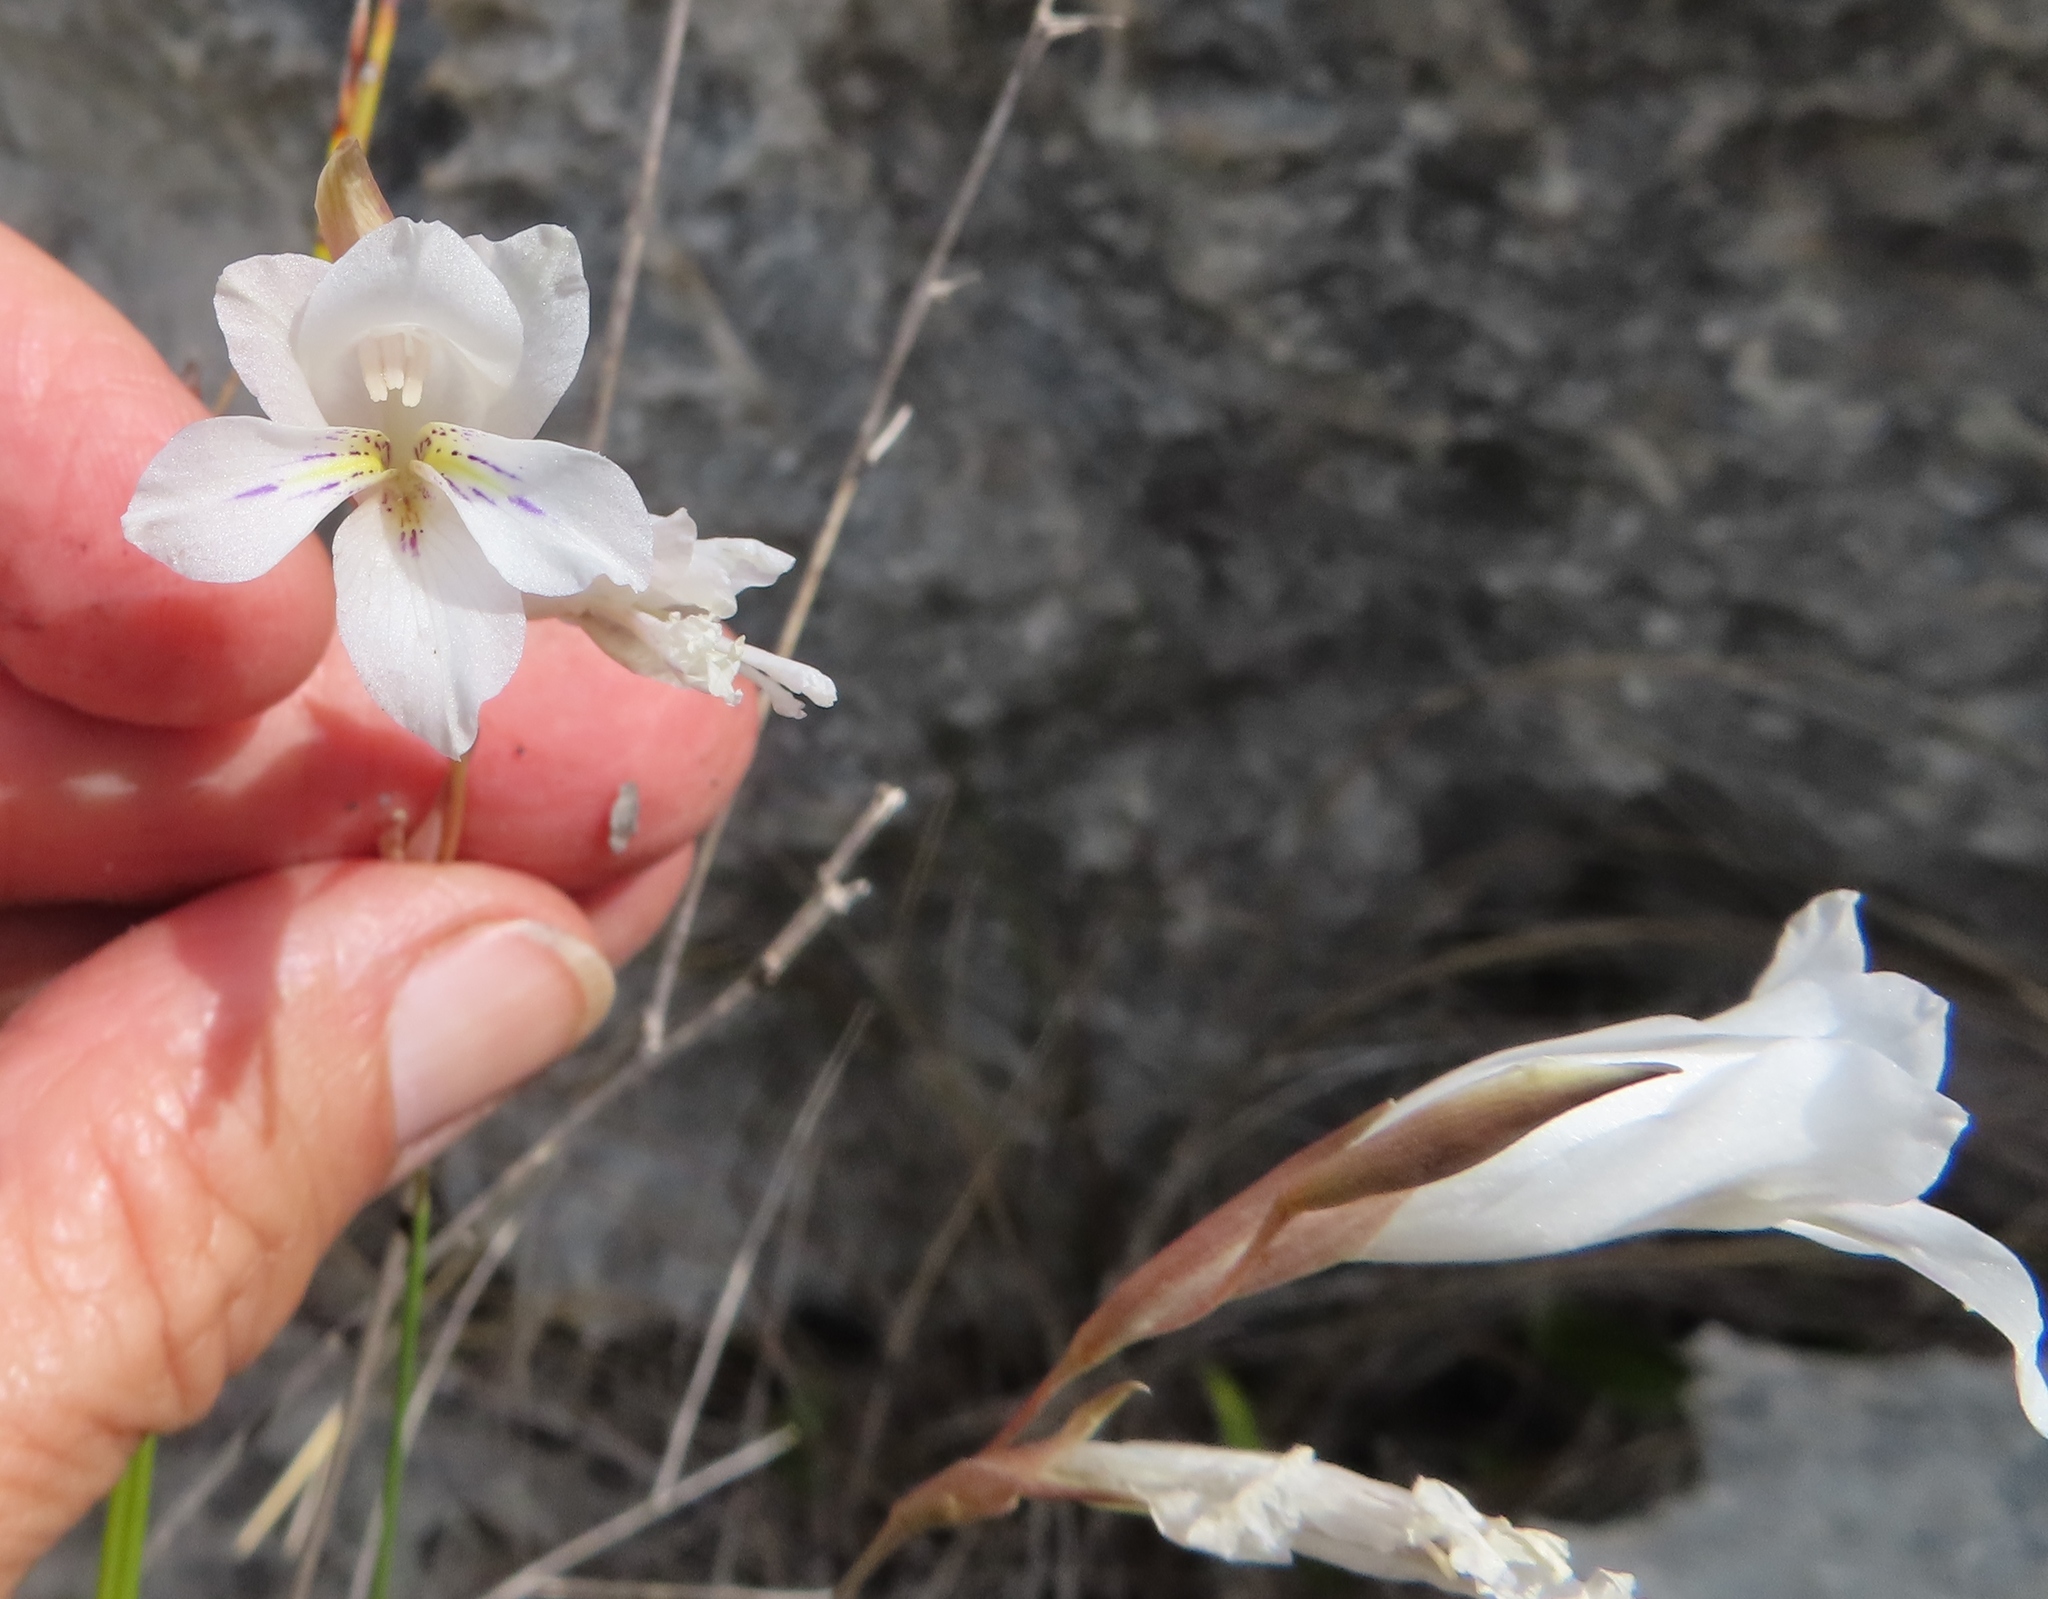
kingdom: Plantae
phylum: Tracheophyta
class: Liliopsida
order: Asparagales
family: Iridaceae
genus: Gladiolus
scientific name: Gladiolus vaginatus
